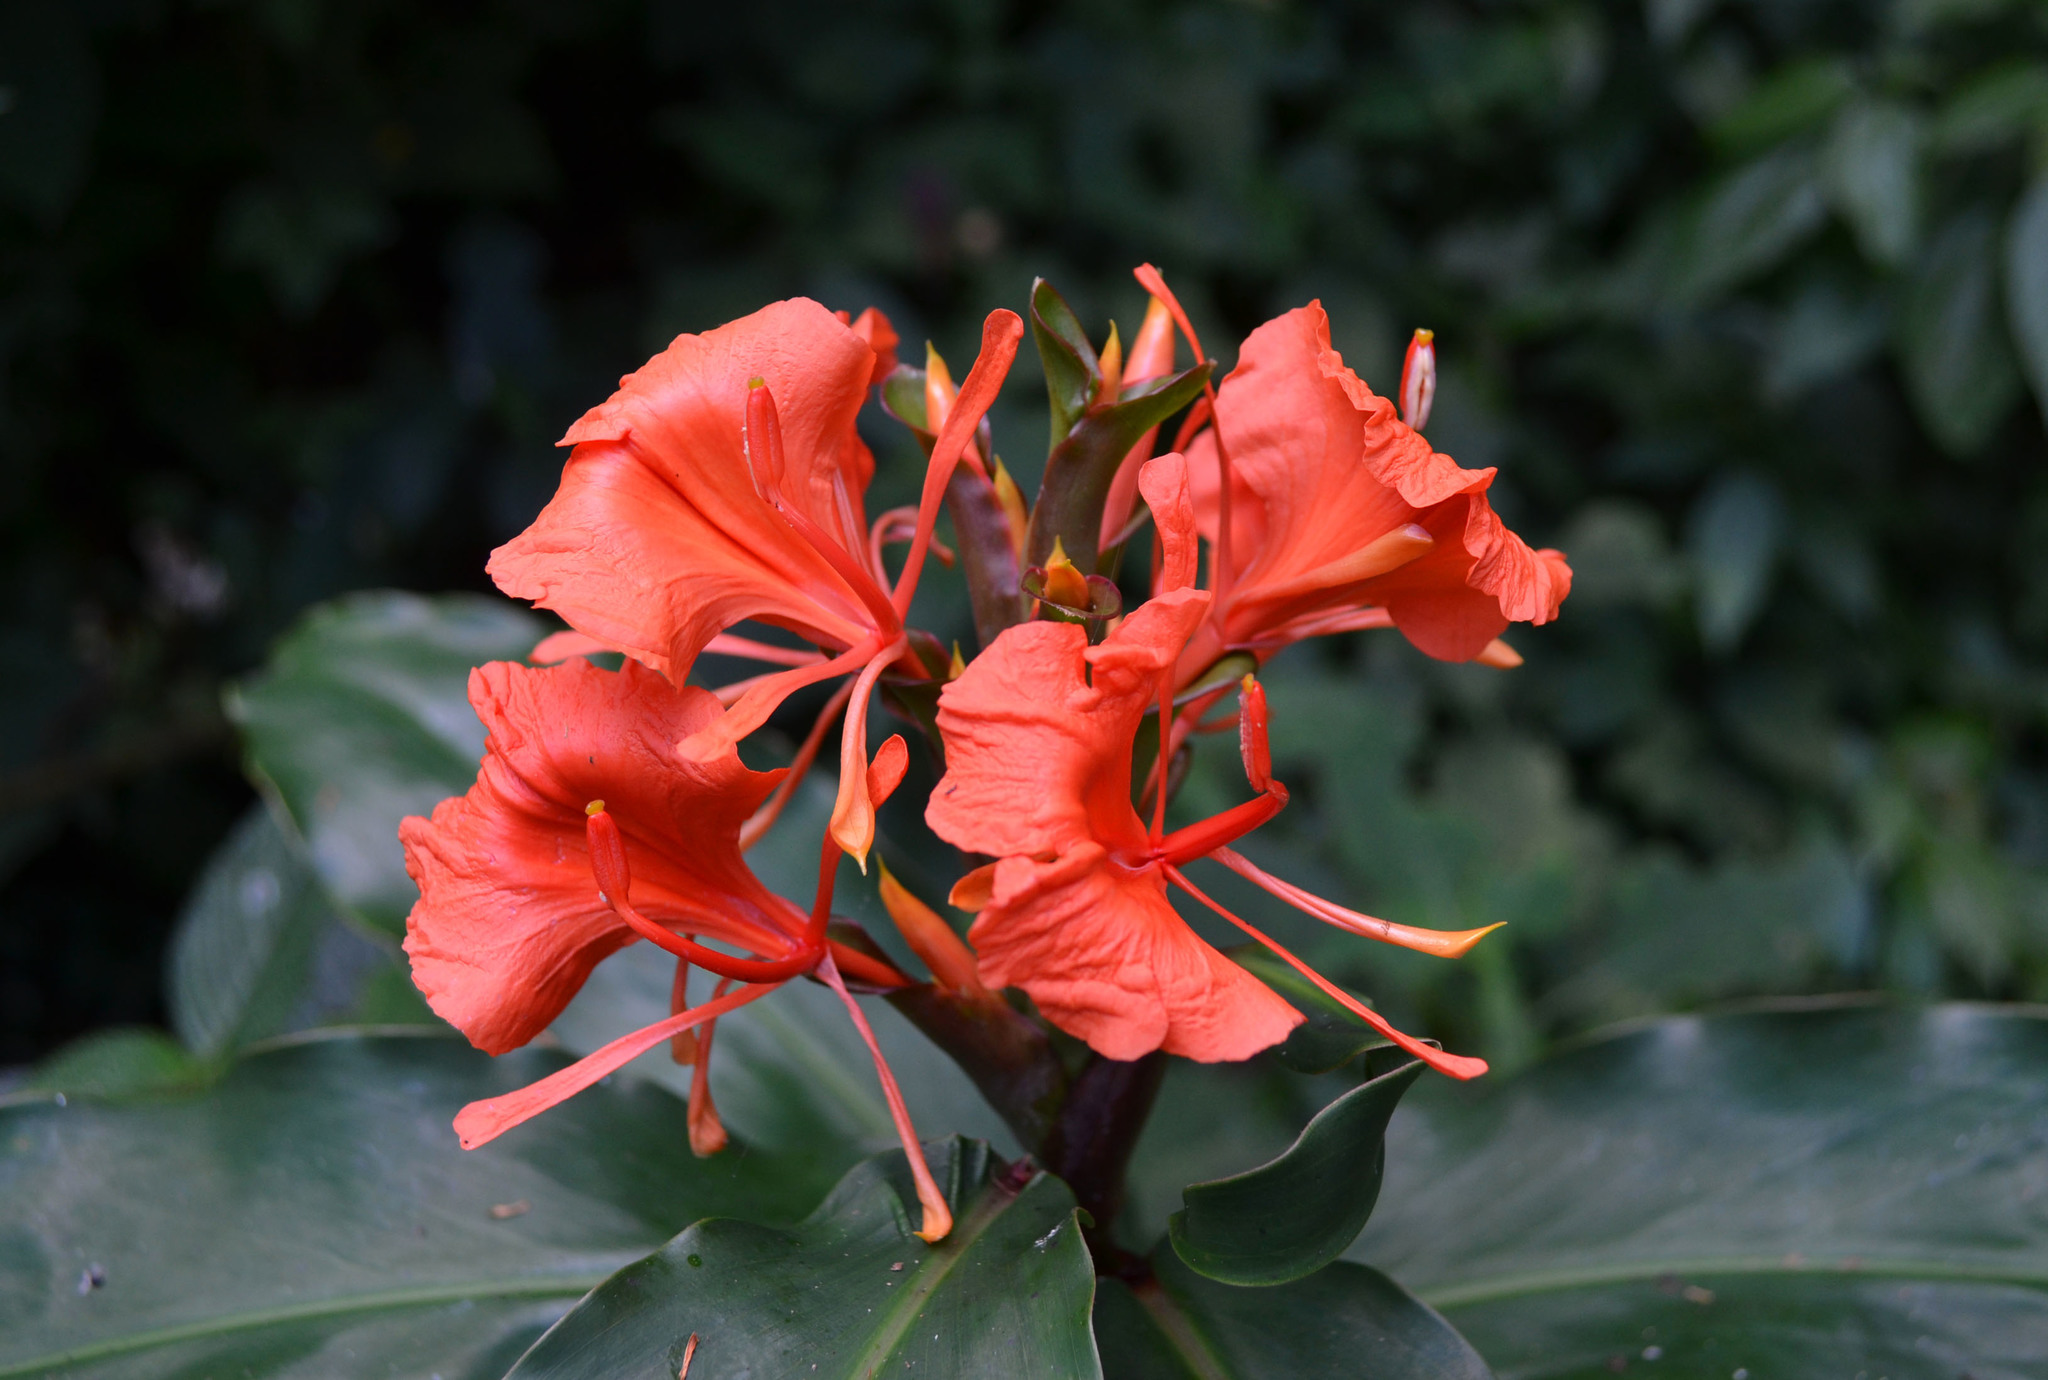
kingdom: Plantae
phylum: Tracheophyta
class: Liliopsida
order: Zingiberales
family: Zingiberaceae
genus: Hedychium
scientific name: Hedychium greenii
